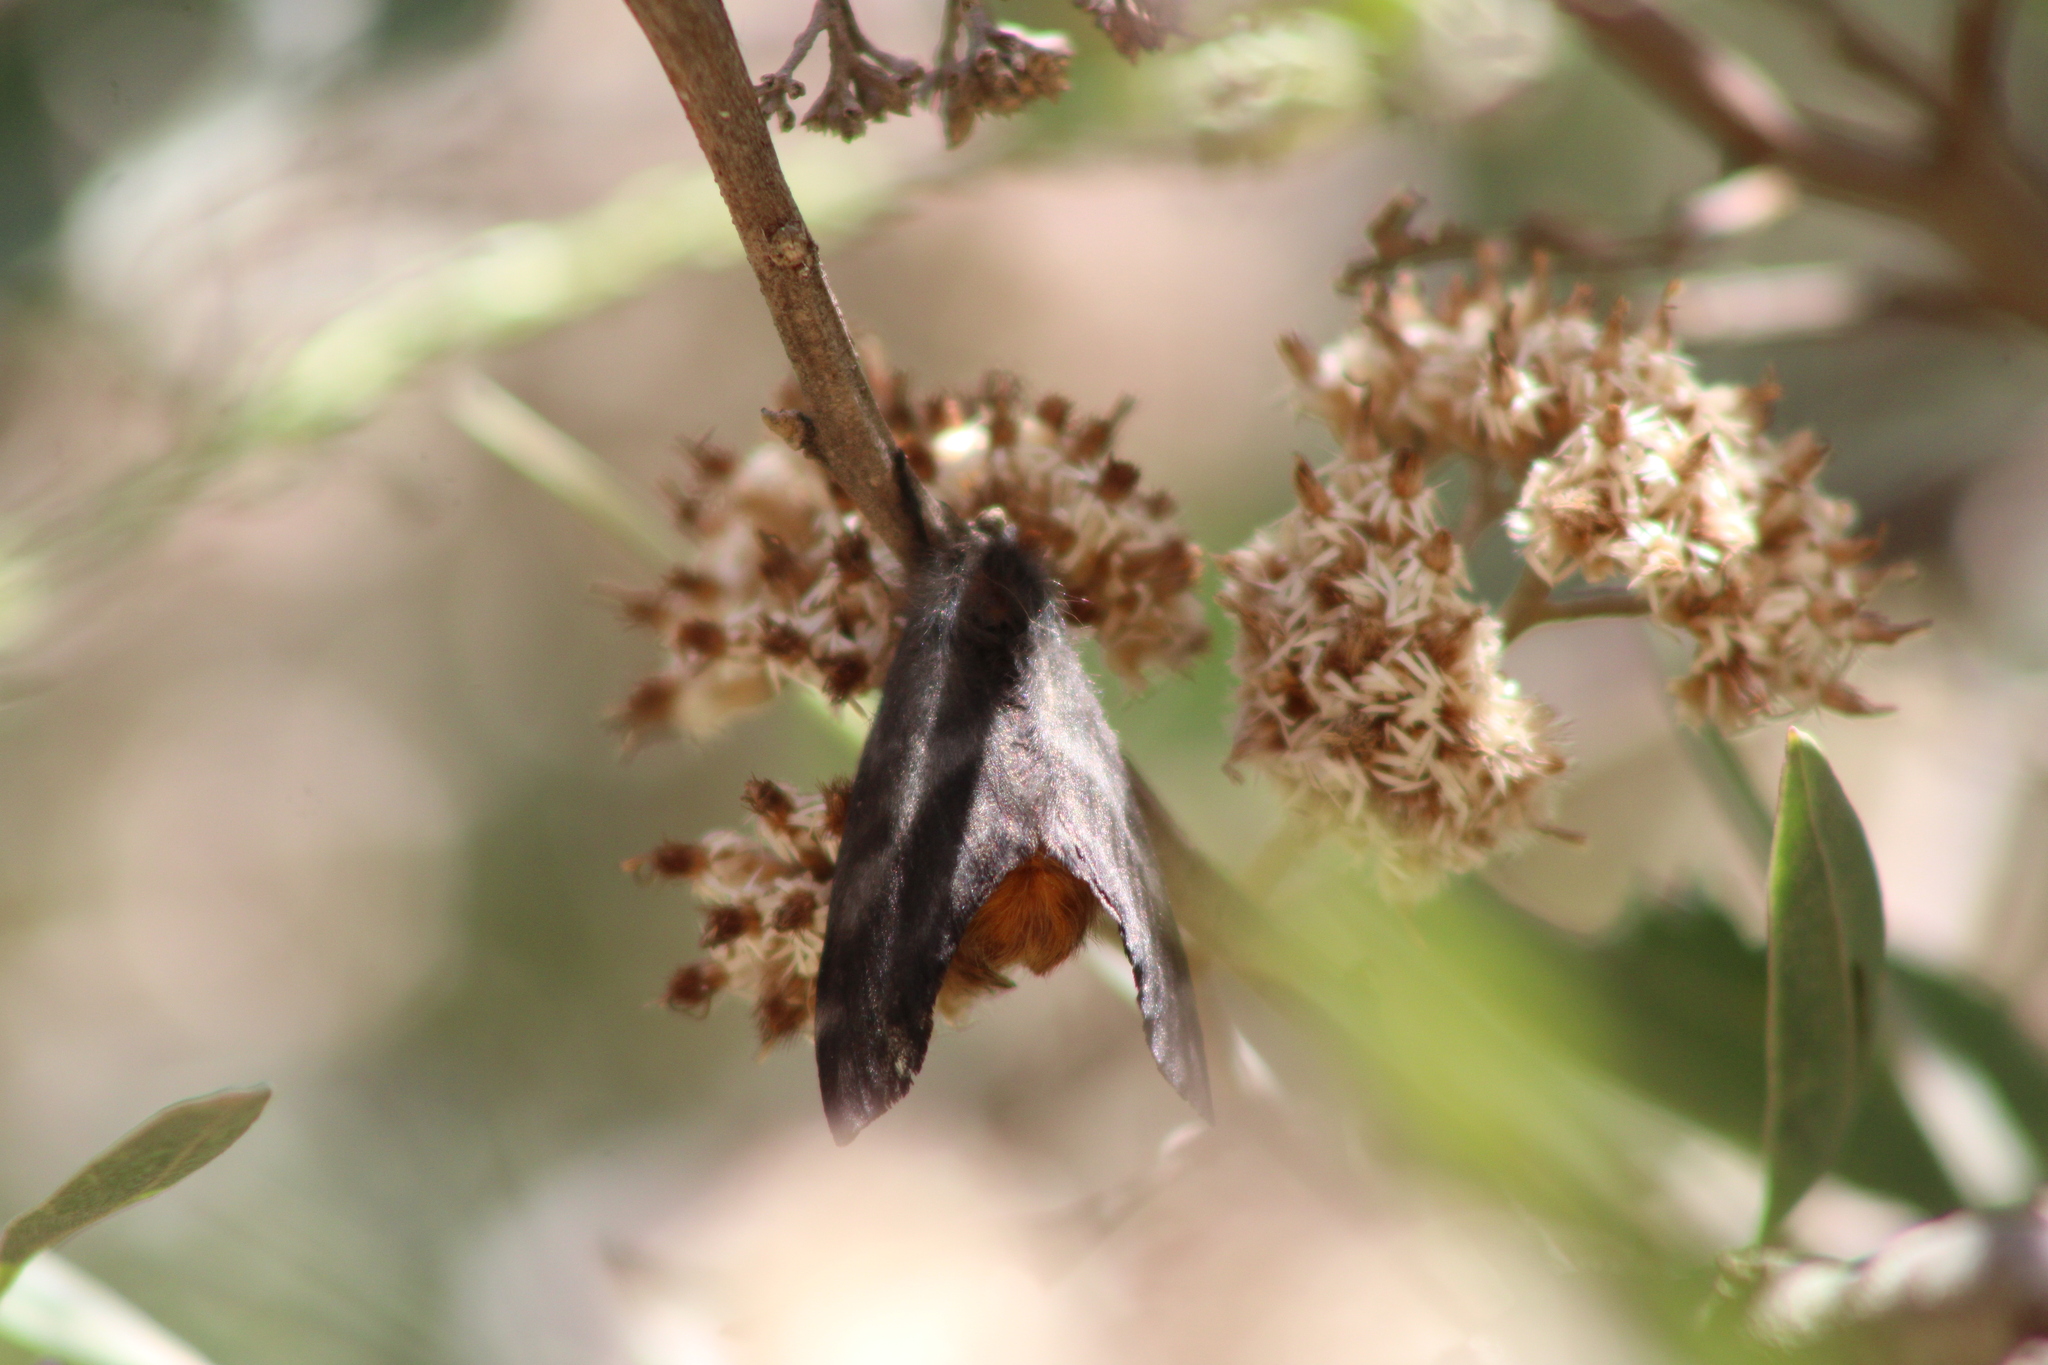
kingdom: Animalia
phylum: Arthropoda
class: Insecta
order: Lepidoptera
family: Saturniidae
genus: Hylesia
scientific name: Hylesia nigricans
